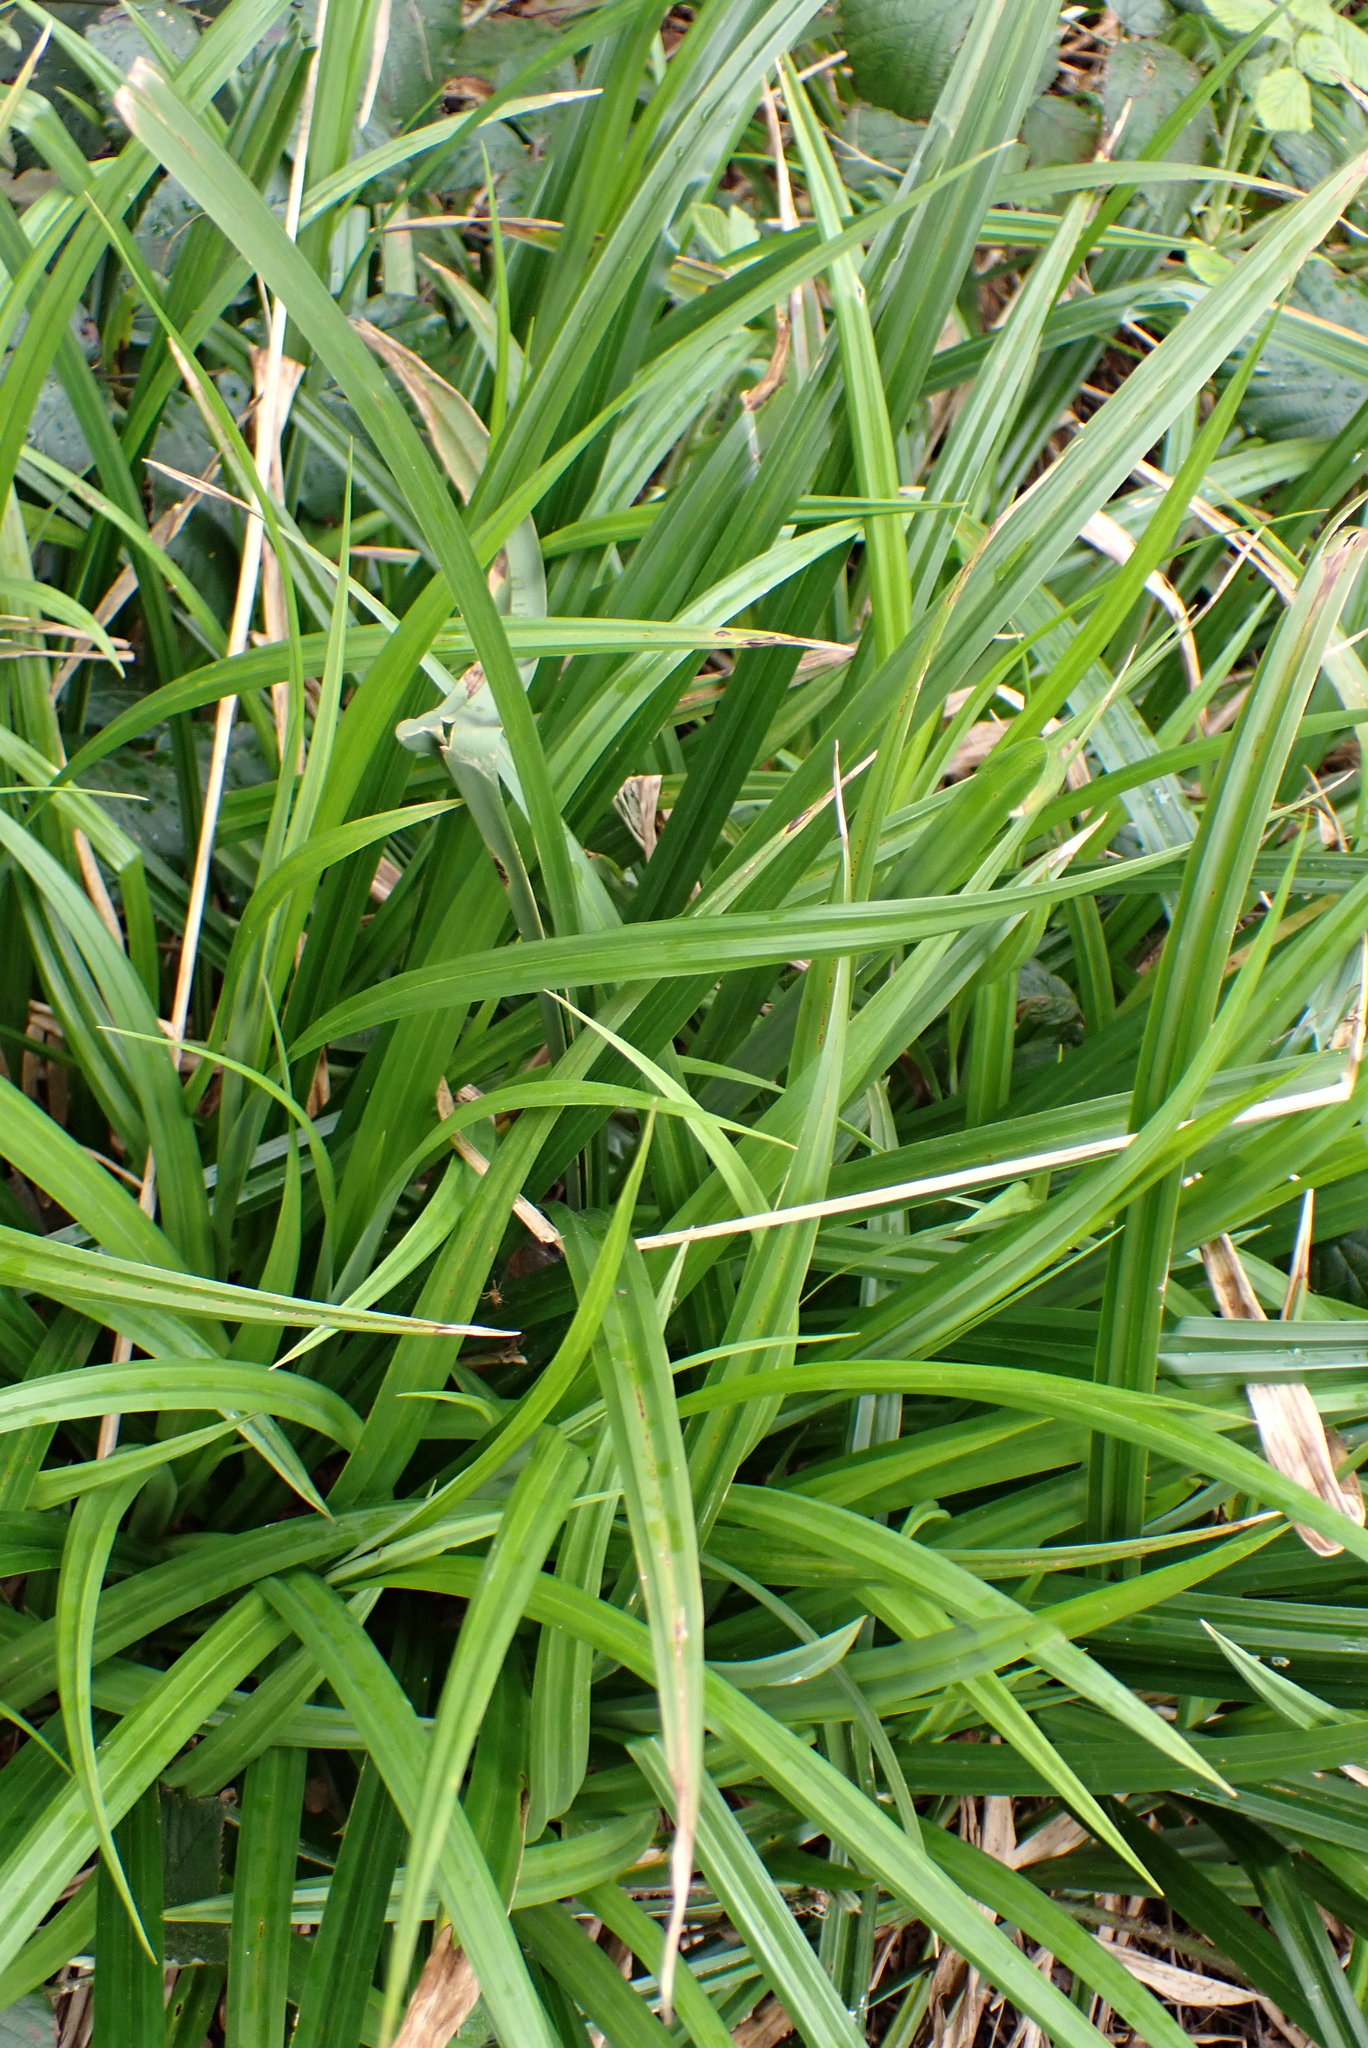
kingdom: Plantae
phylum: Tracheophyta
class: Liliopsida
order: Poales
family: Cyperaceae
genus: Carex
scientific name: Carex pendula
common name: Pendulous sedge
